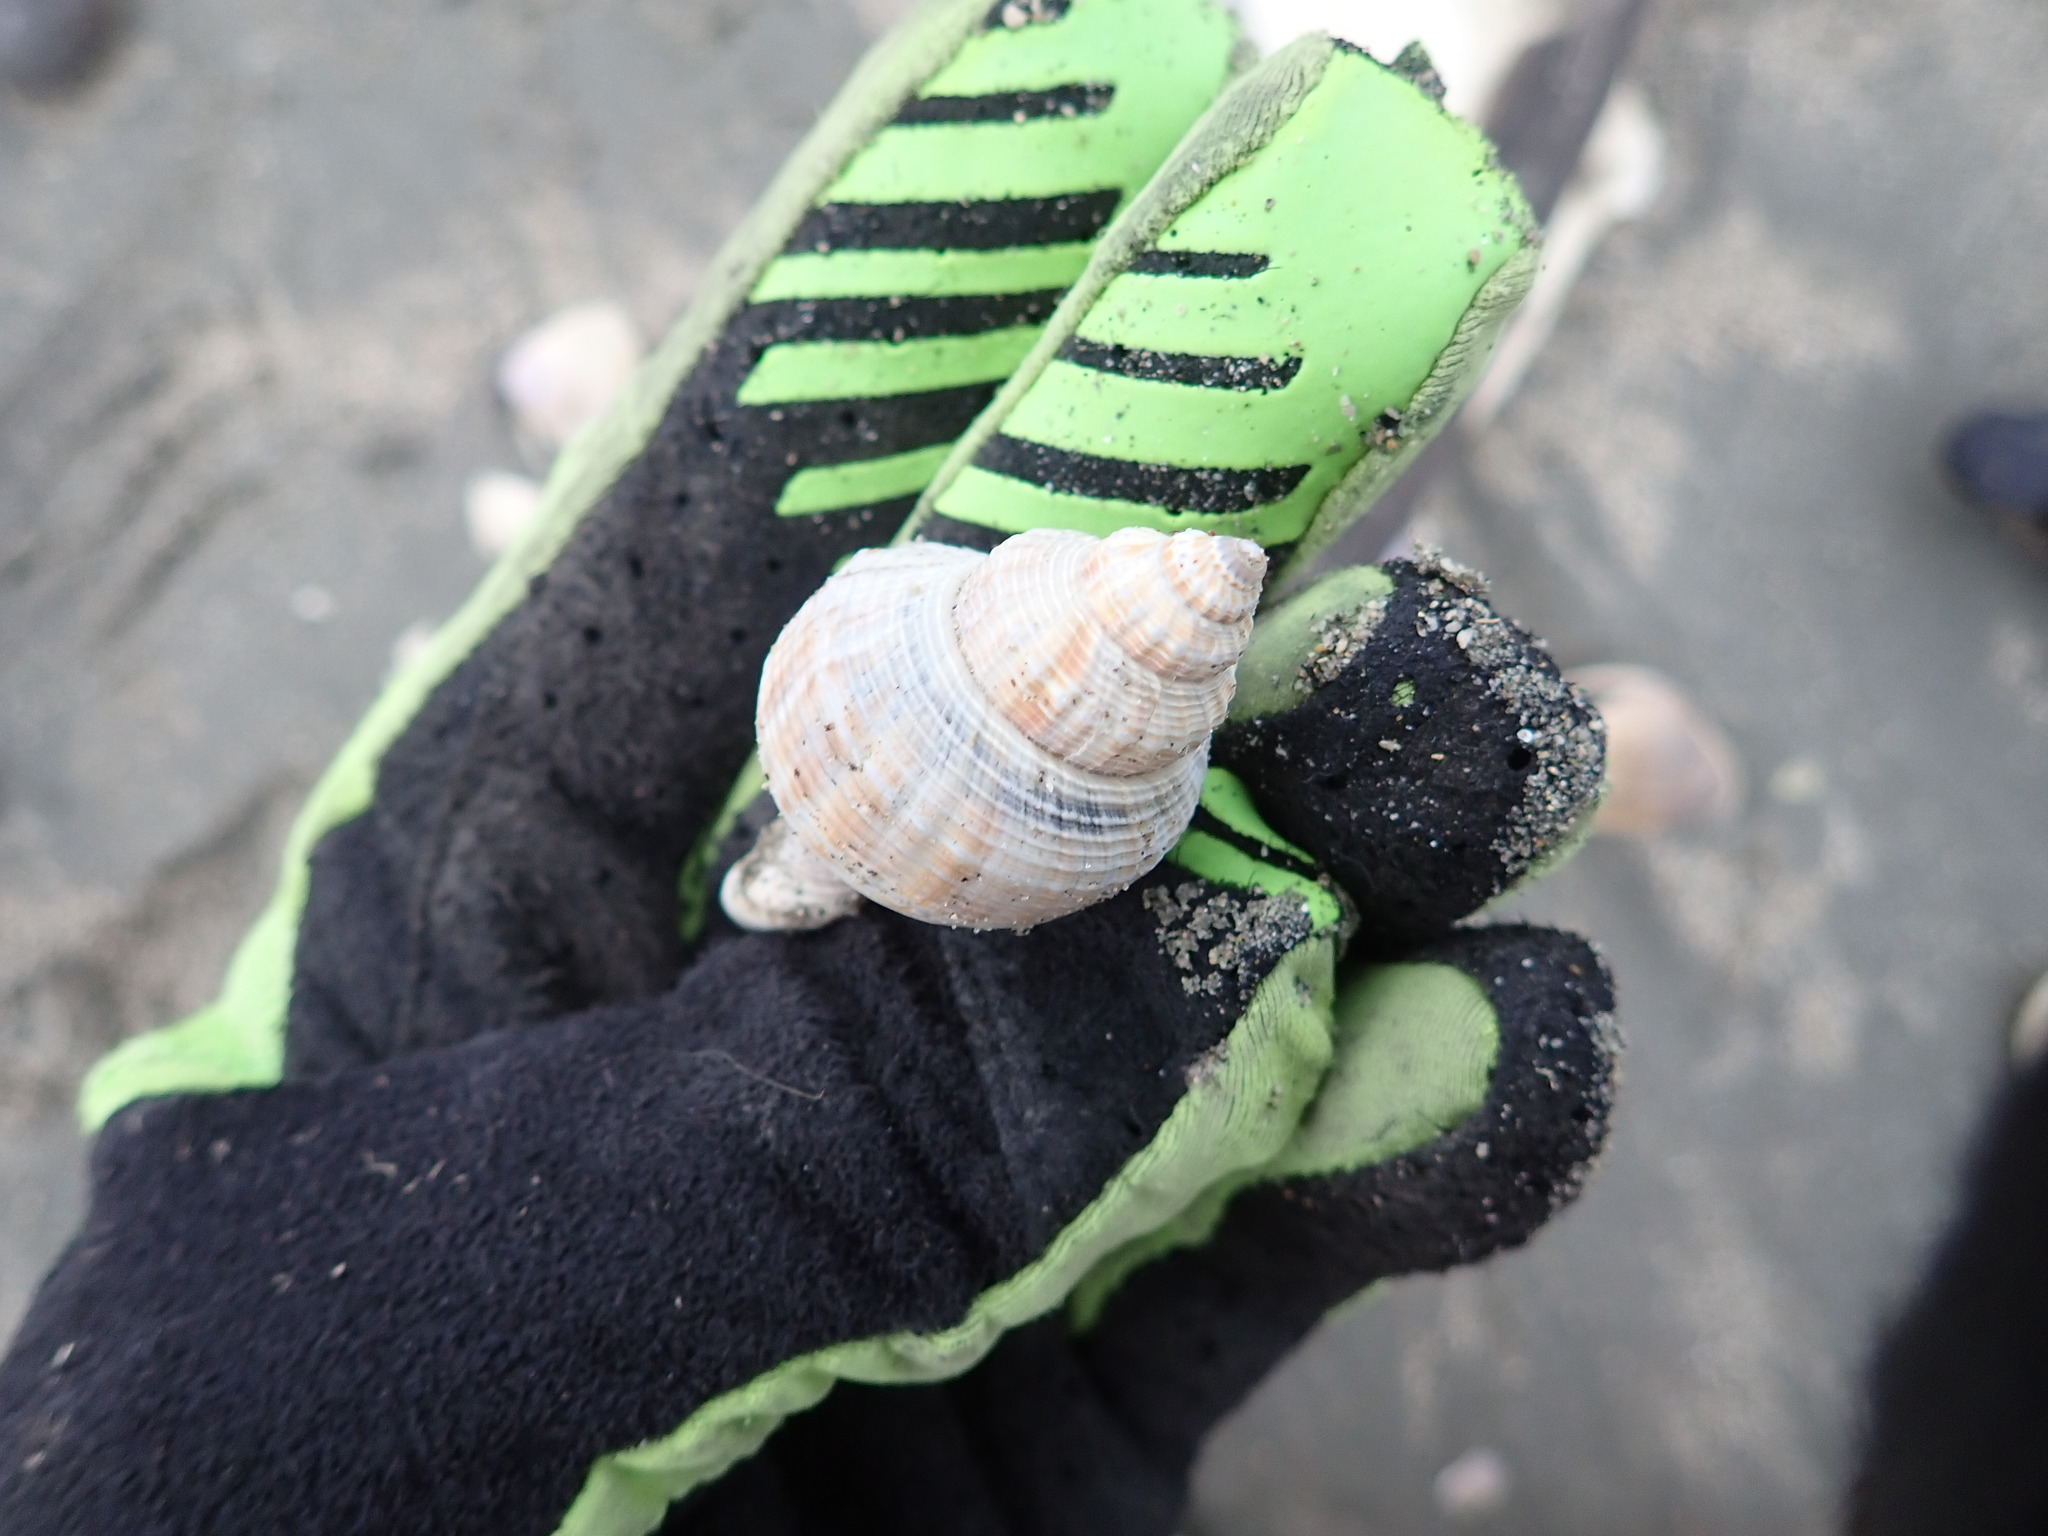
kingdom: Animalia
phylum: Mollusca
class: Gastropoda
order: Neogastropoda
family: Prosiphonidae
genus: Austrofusus
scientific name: Austrofusus glans
